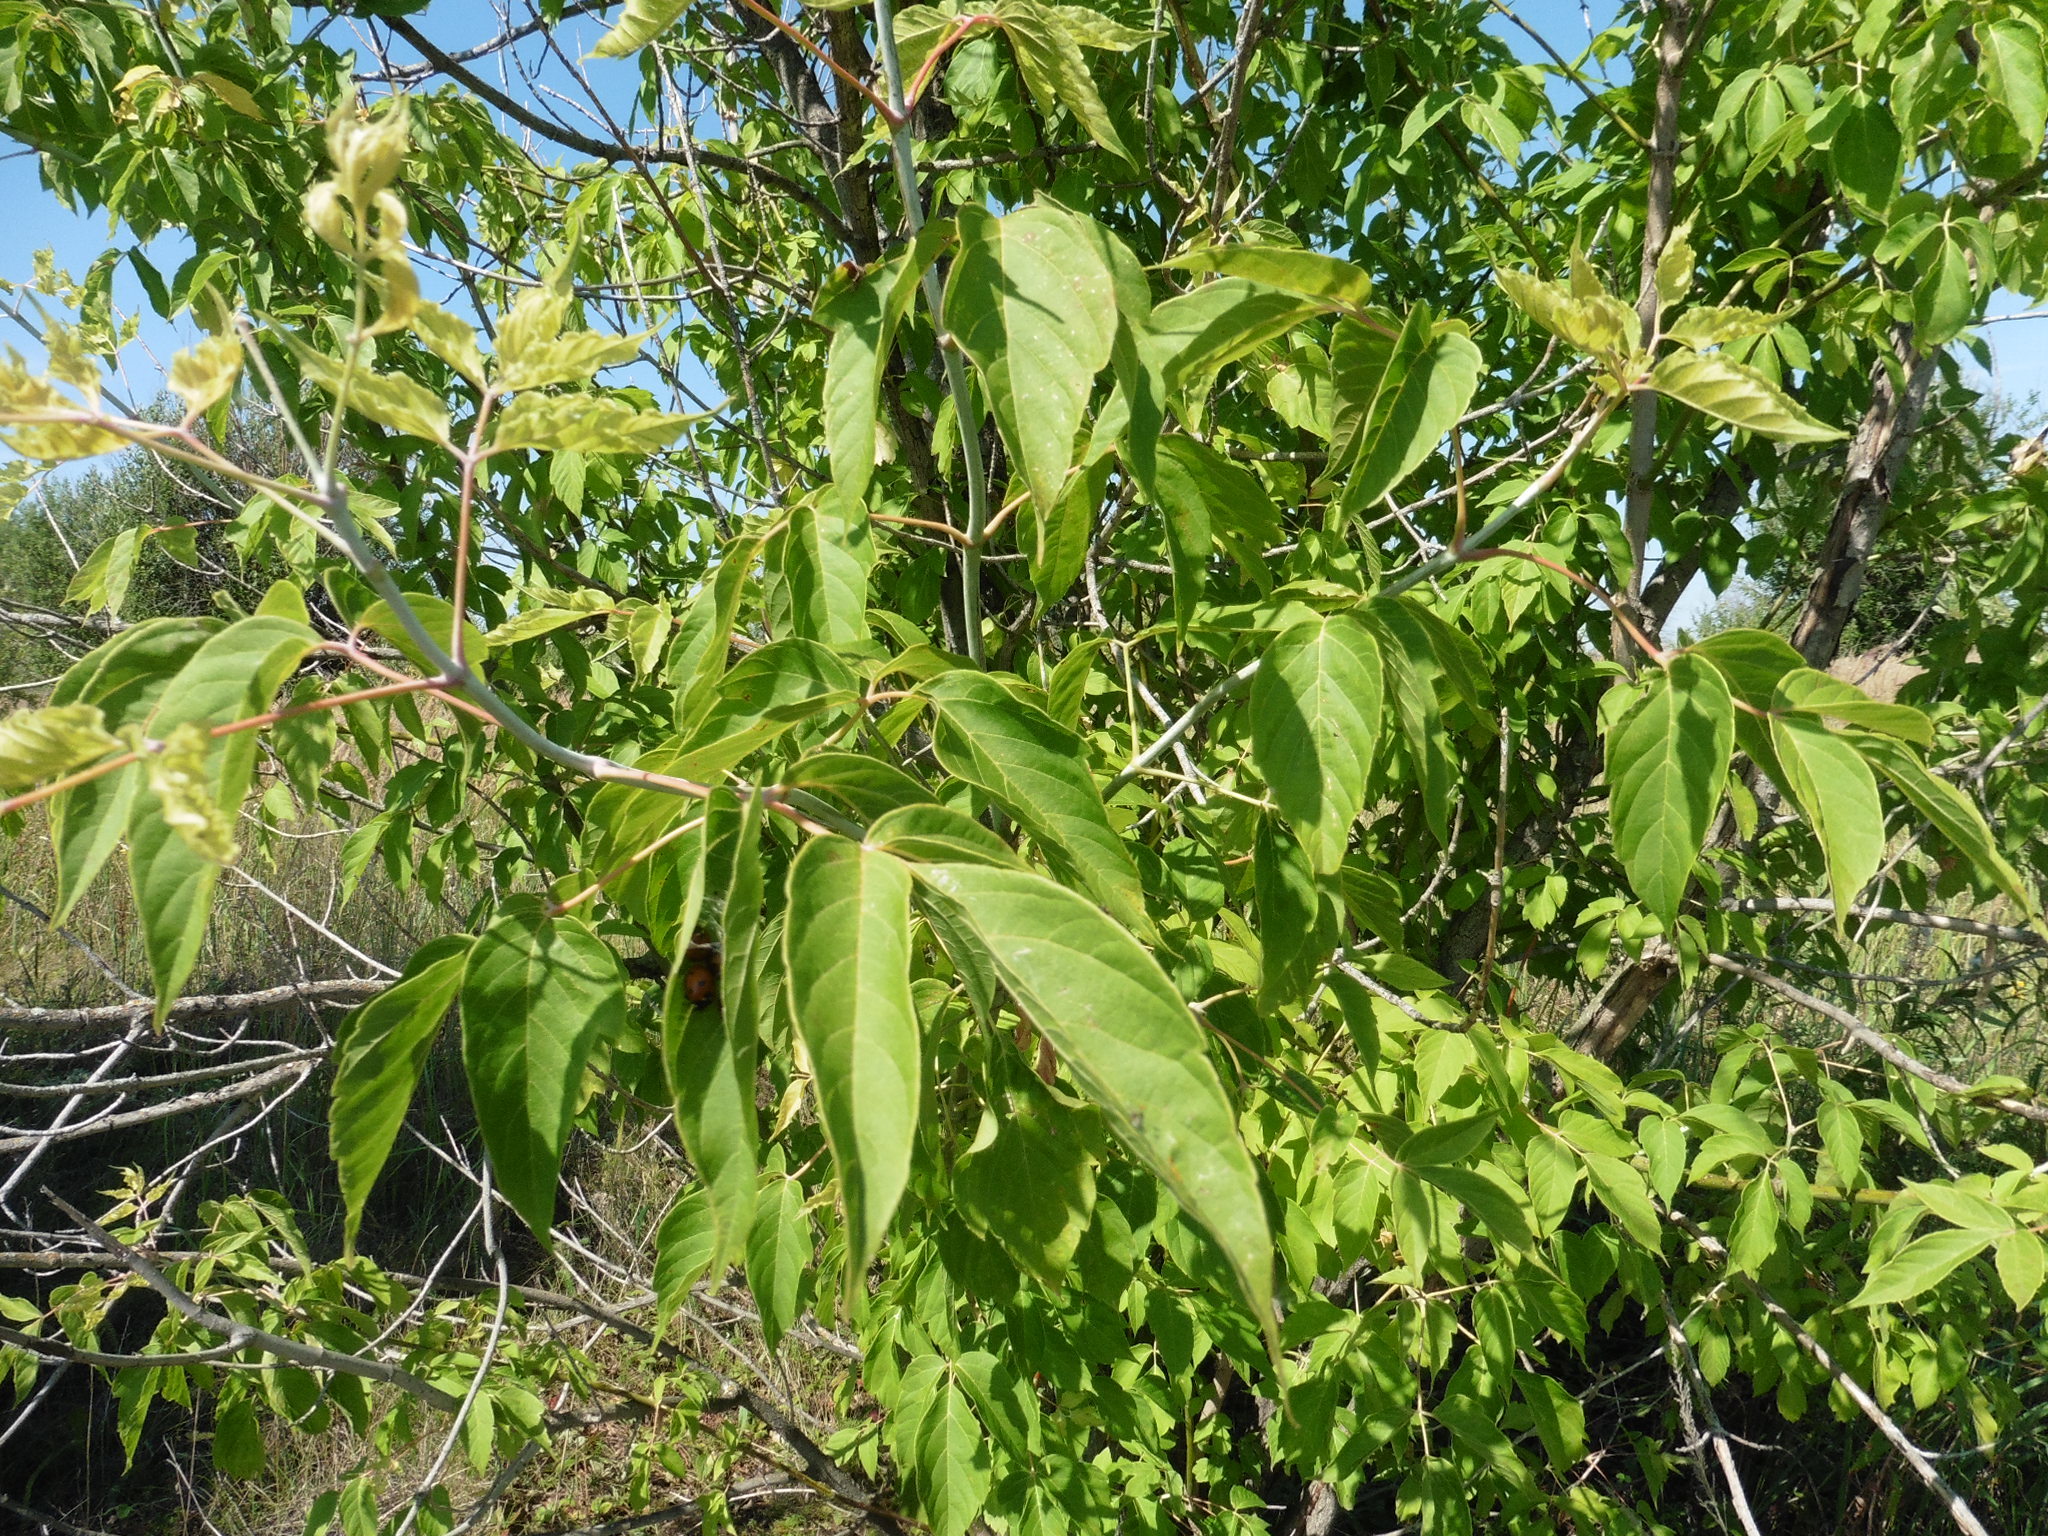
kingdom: Plantae
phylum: Tracheophyta
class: Magnoliopsida
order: Sapindales
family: Sapindaceae
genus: Acer
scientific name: Acer negundo
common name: Ashleaf maple
